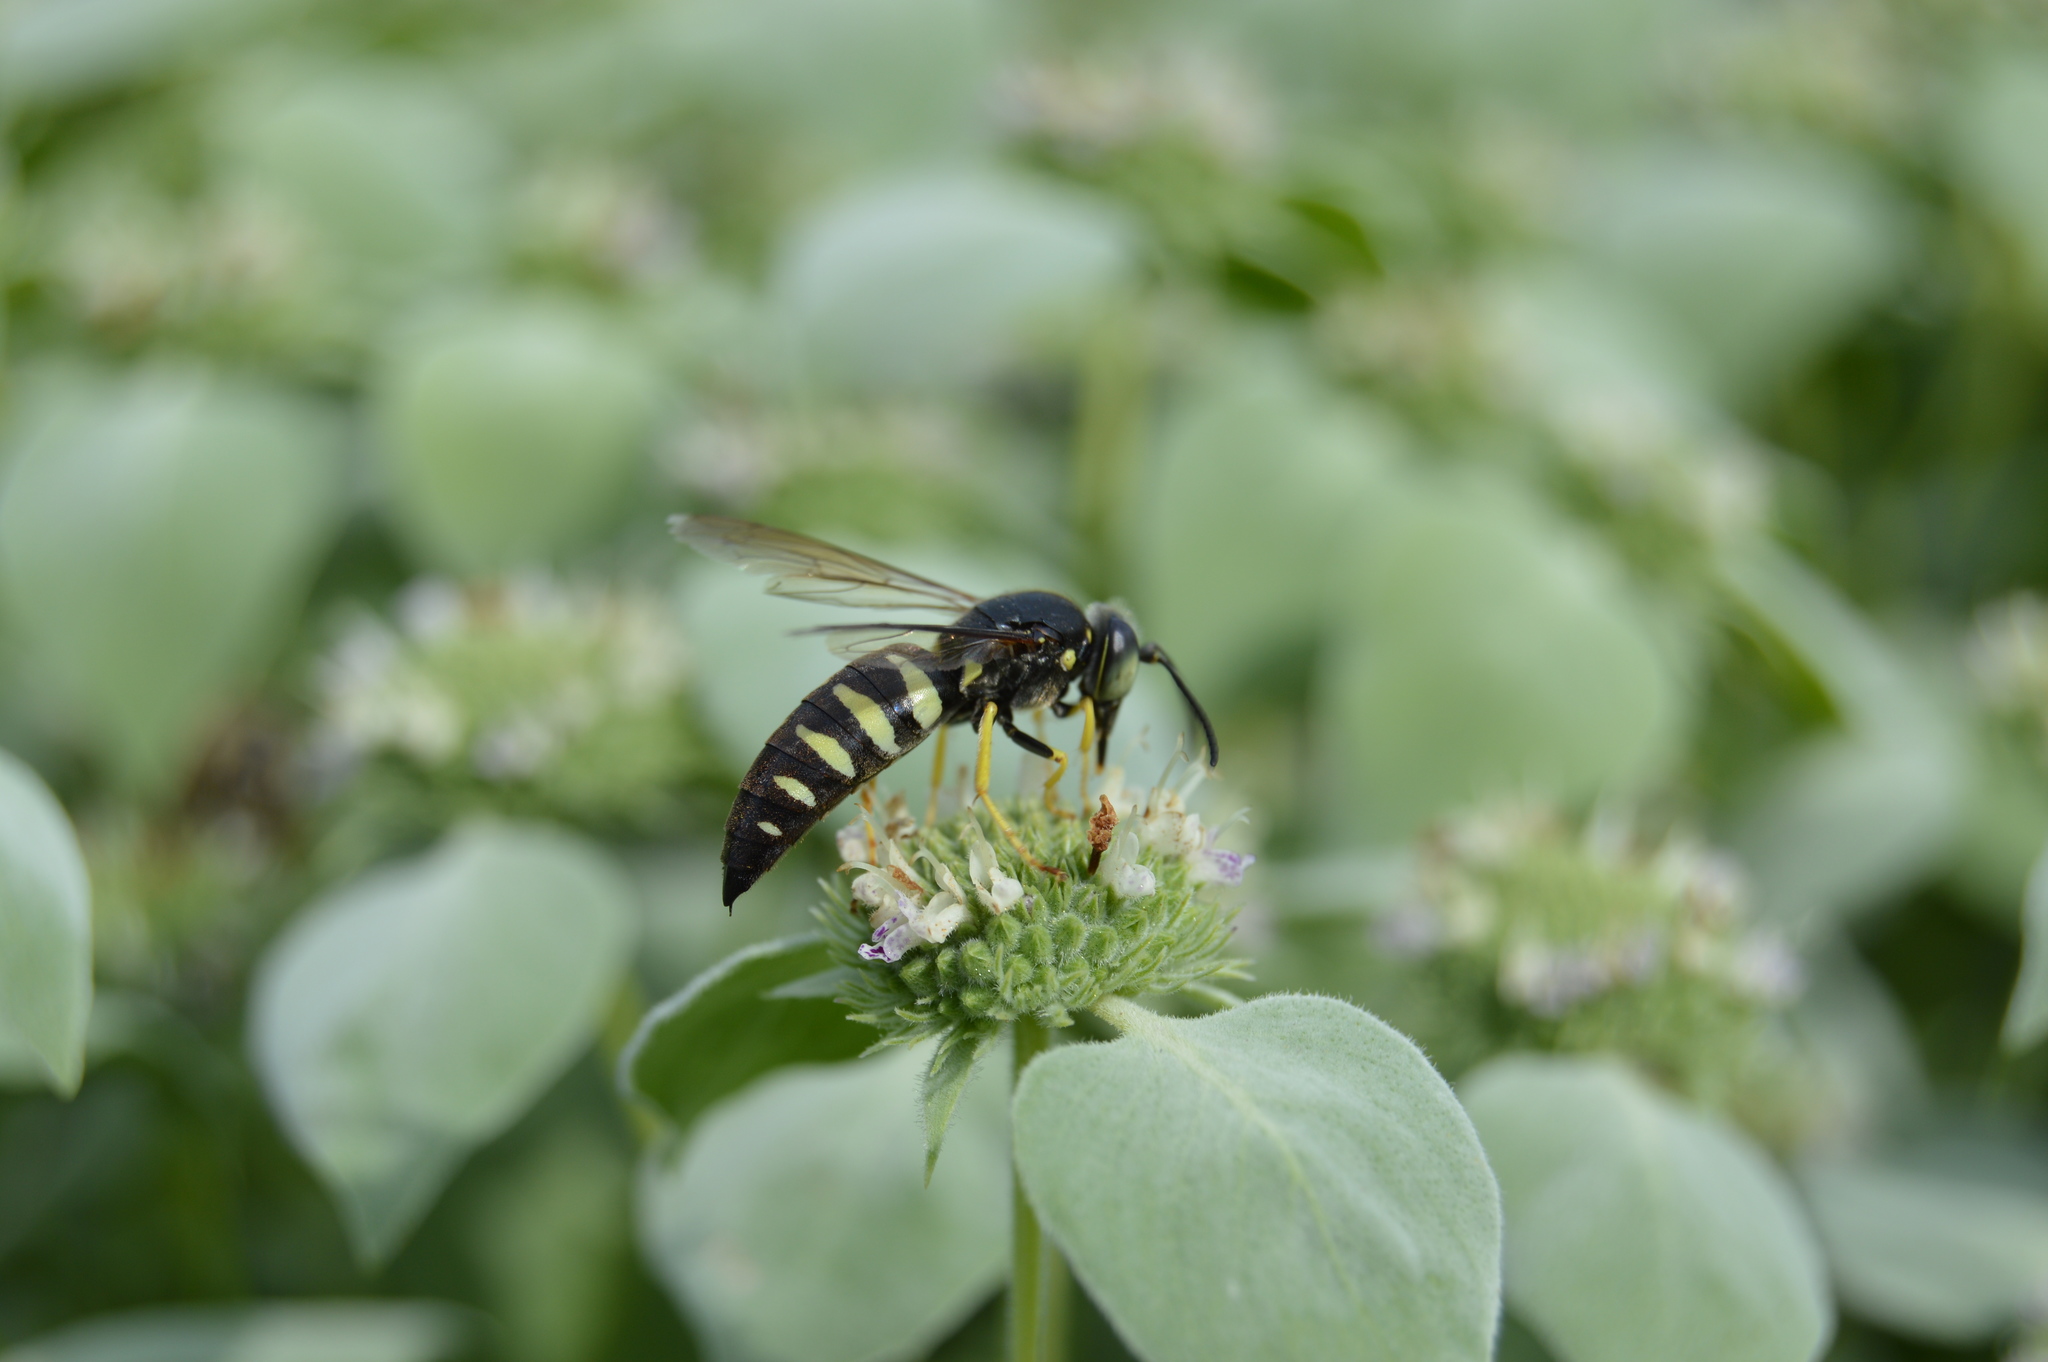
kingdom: Animalia
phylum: Arthropoda
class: Insecta
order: Hymenoptera
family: Crabronidae
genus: Bicyrtes
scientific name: Bicyrtes quadrifasciatus
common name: Four-banded stink bug hunter wasp
